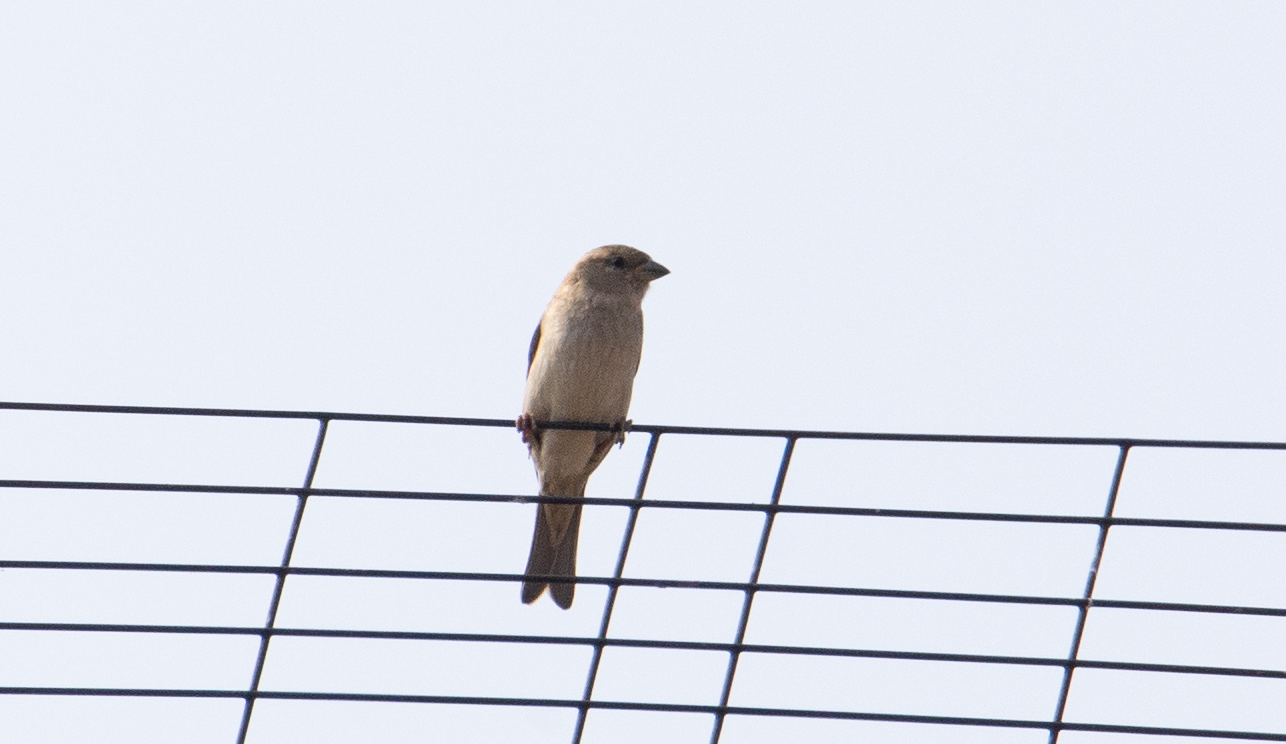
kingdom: Animalia
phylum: Chordata
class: Aves
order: Passeriformes
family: Passeridae
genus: Passer
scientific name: Passer italiae
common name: Italian sparrow
